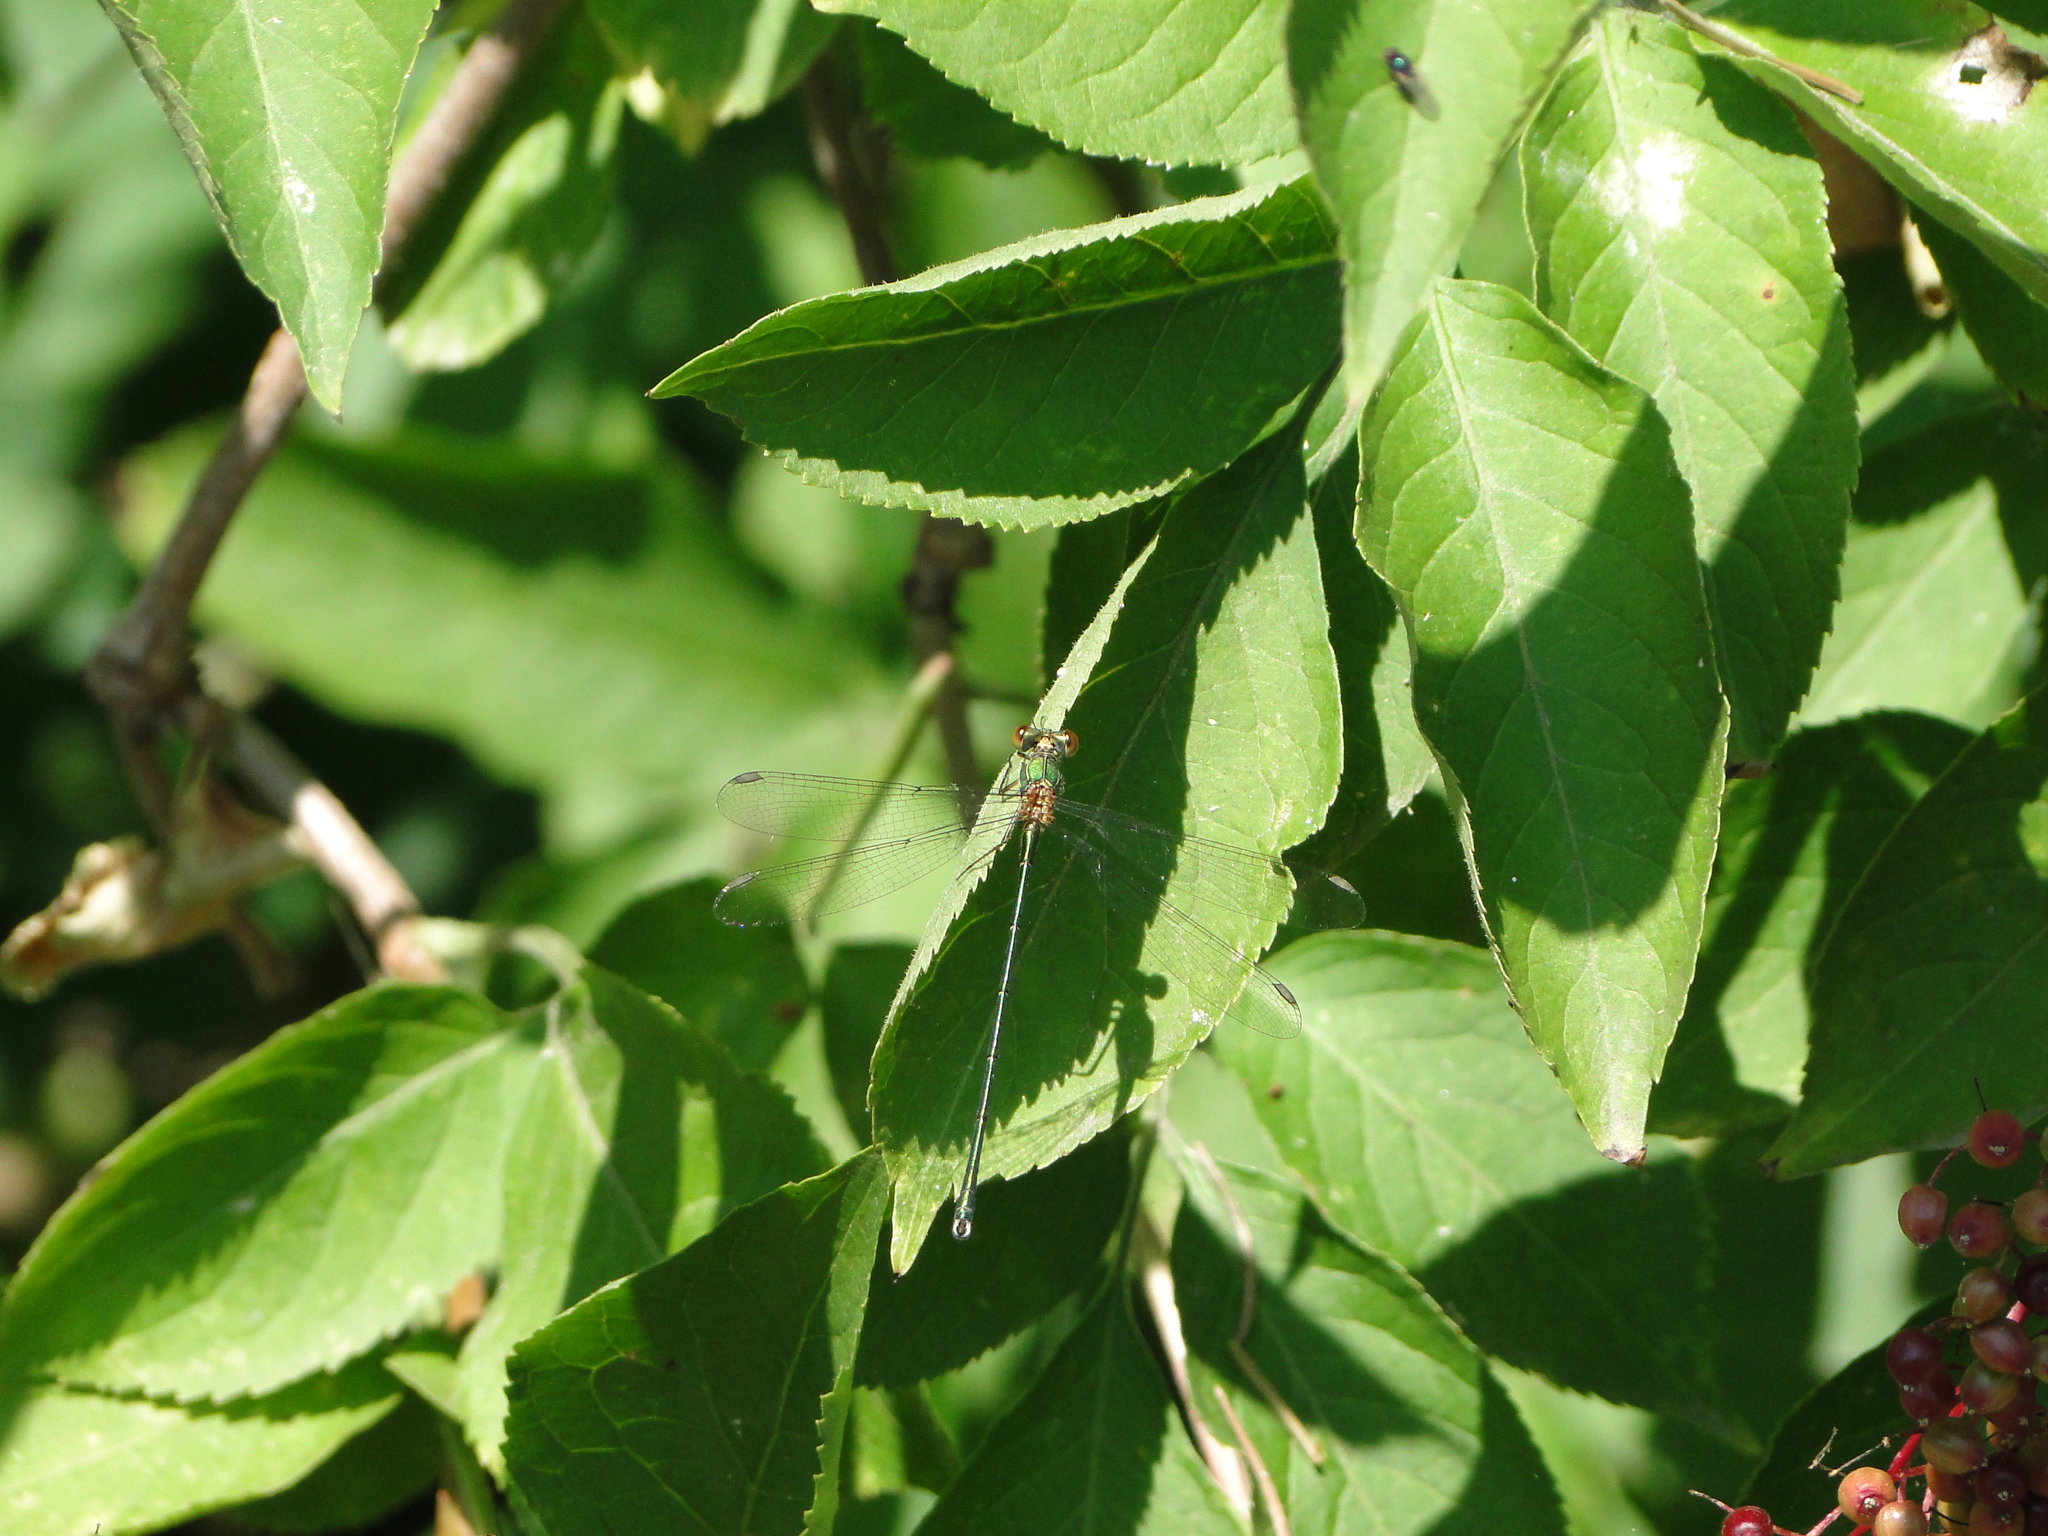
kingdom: Animalia
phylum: Arthropoda
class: Insecta
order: Odonata
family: Lestidae
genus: Chalcolestes
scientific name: Chalcolestes viridis
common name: Green emerald damselfly
